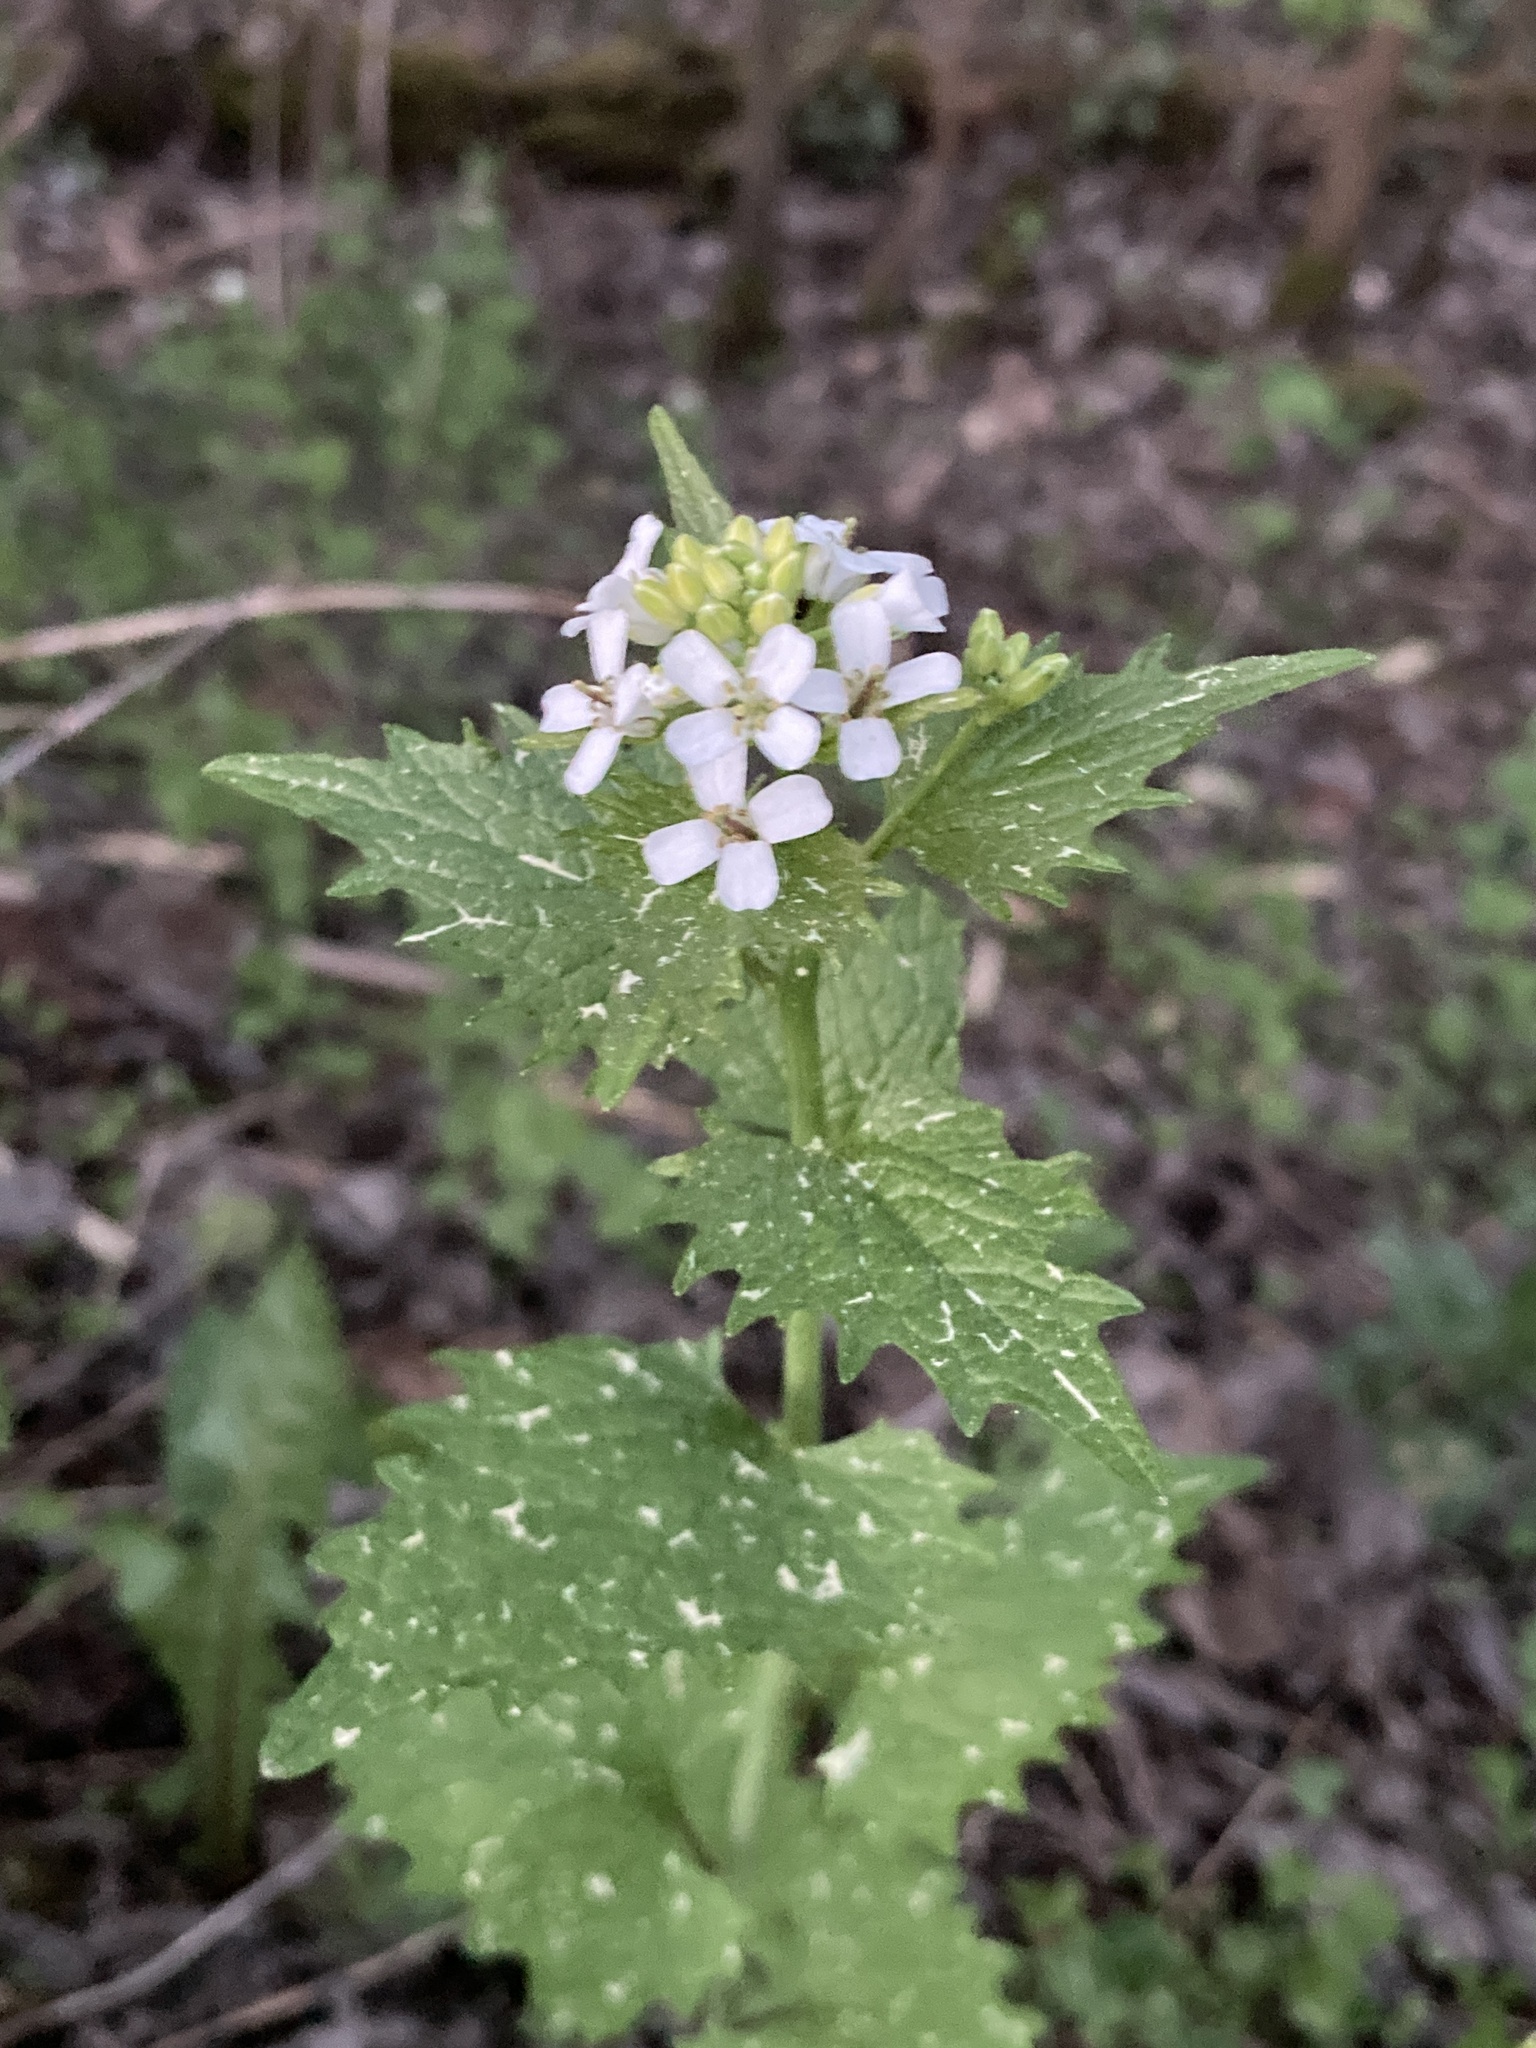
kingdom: Plantae
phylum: Tracheophyta
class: Magnoliopsida
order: Brassicales
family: Brassicaceae
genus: Alliaria
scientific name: Alliaria petiolata
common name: Garlic mustard
